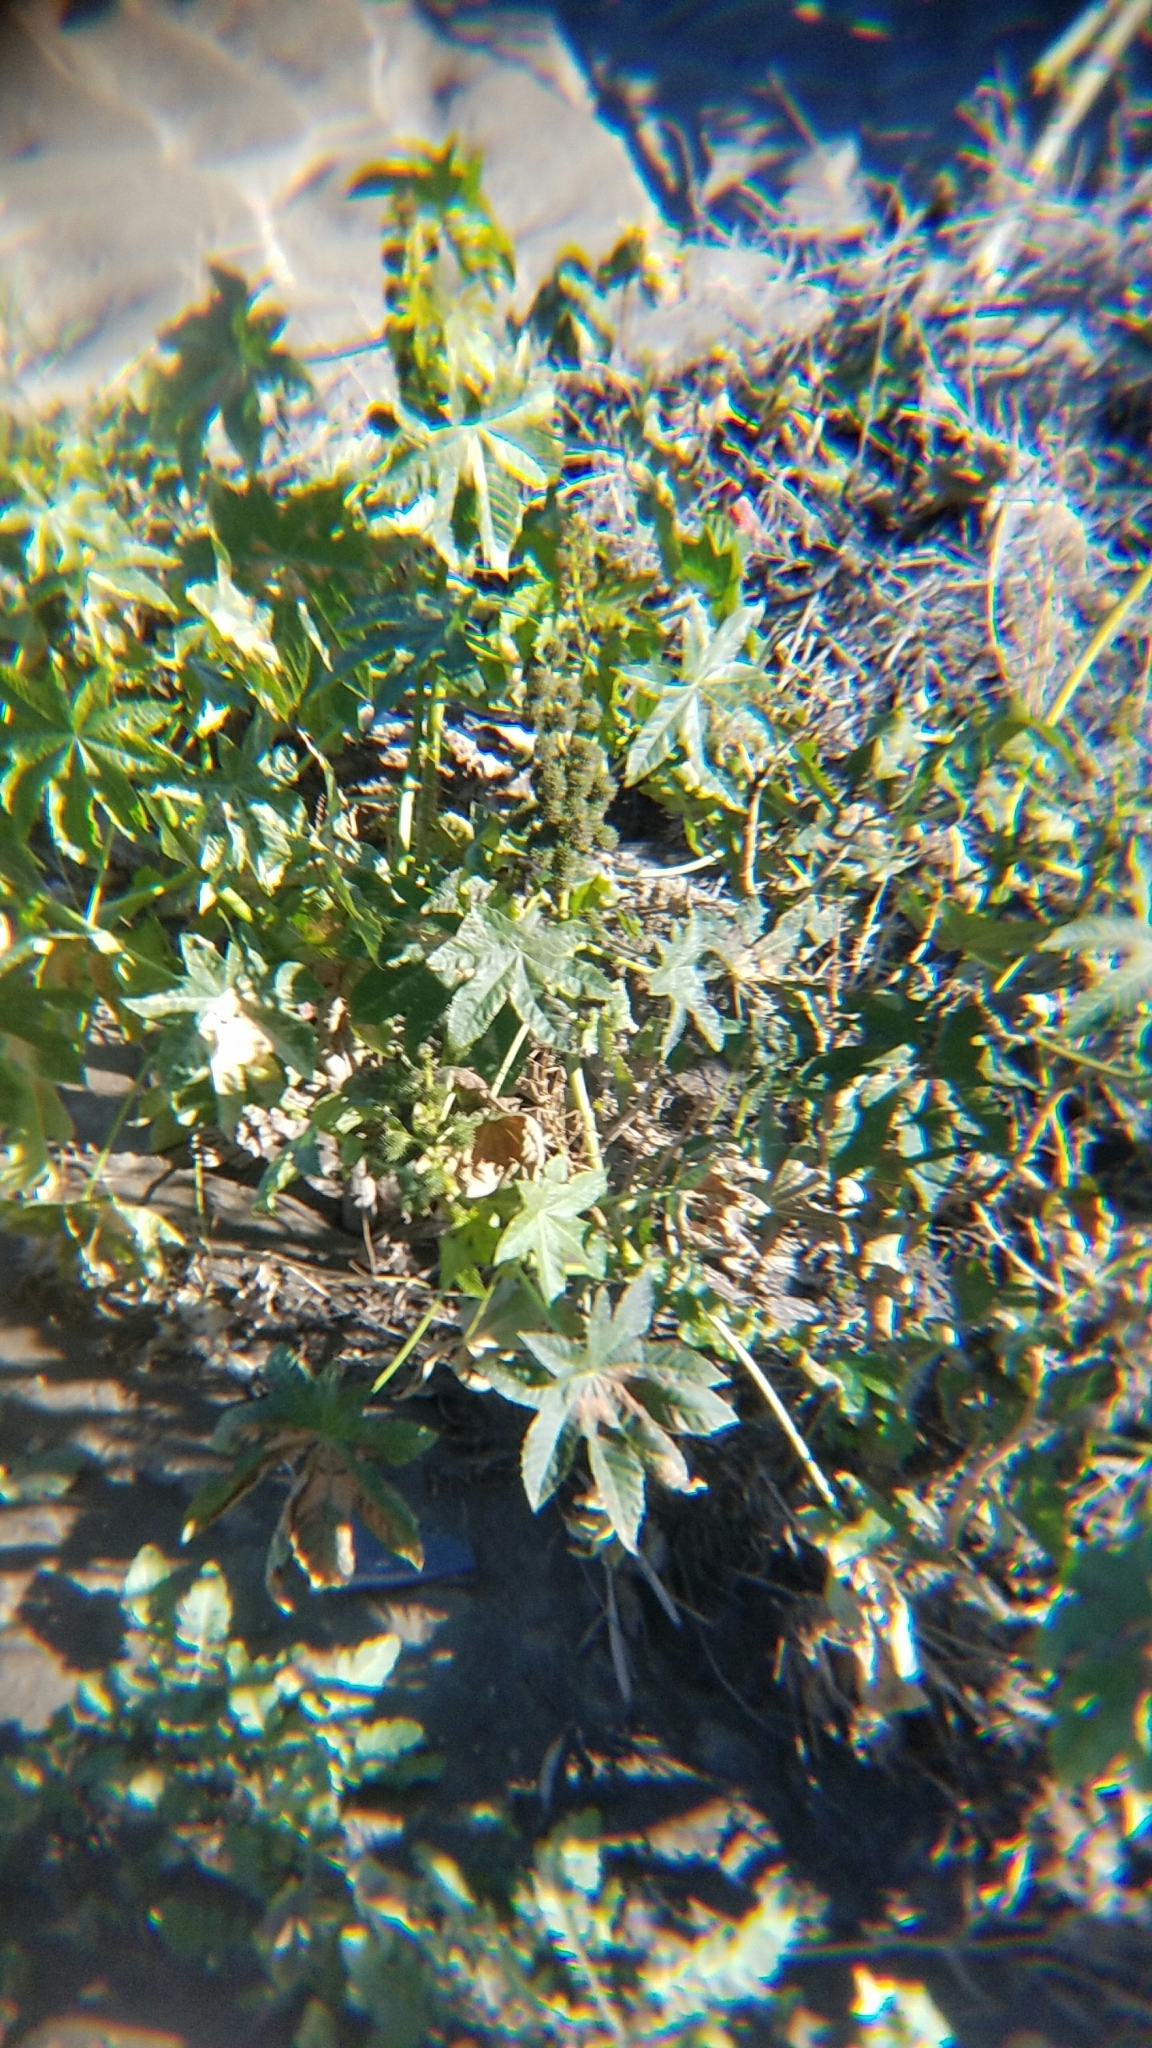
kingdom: Plantae
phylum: Tracheophyta
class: Magnoliopsida
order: Malpighiales
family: Euphorbiaceae
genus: Ricinus
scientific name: Ricinus communis
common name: Castor-oil-plant
